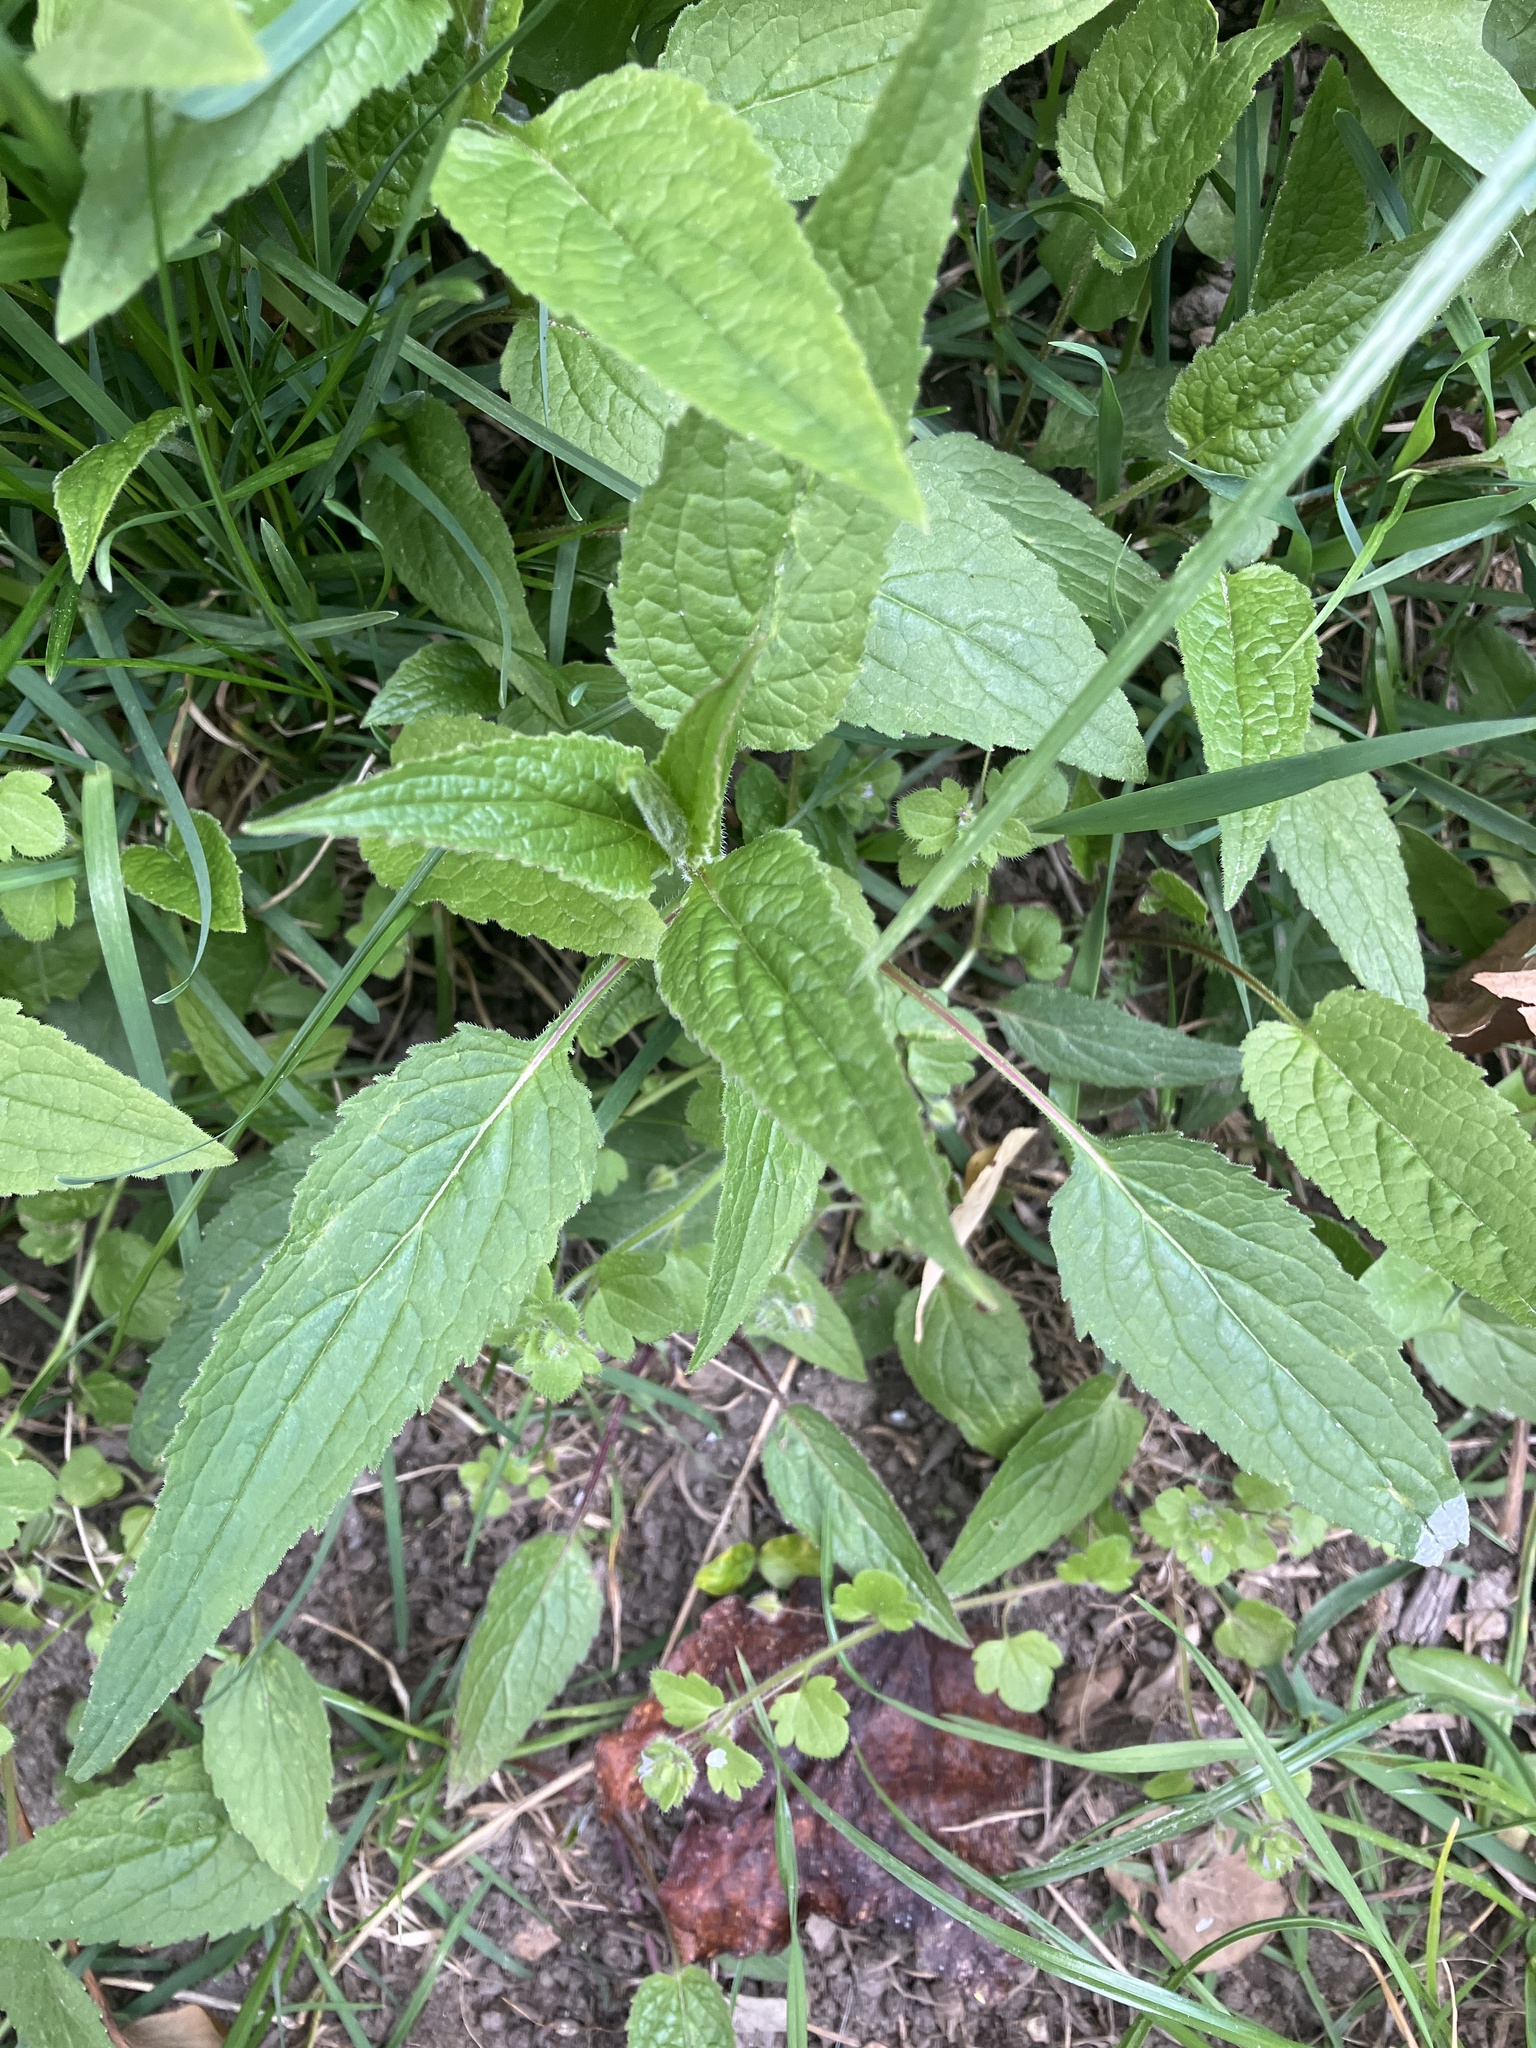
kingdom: Plantae
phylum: Tracheophyta
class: Magnoliopsida
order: Asterales
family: Campanulaceae
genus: Campanula
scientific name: Campanula rapunculoides
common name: Creeping bellflower
